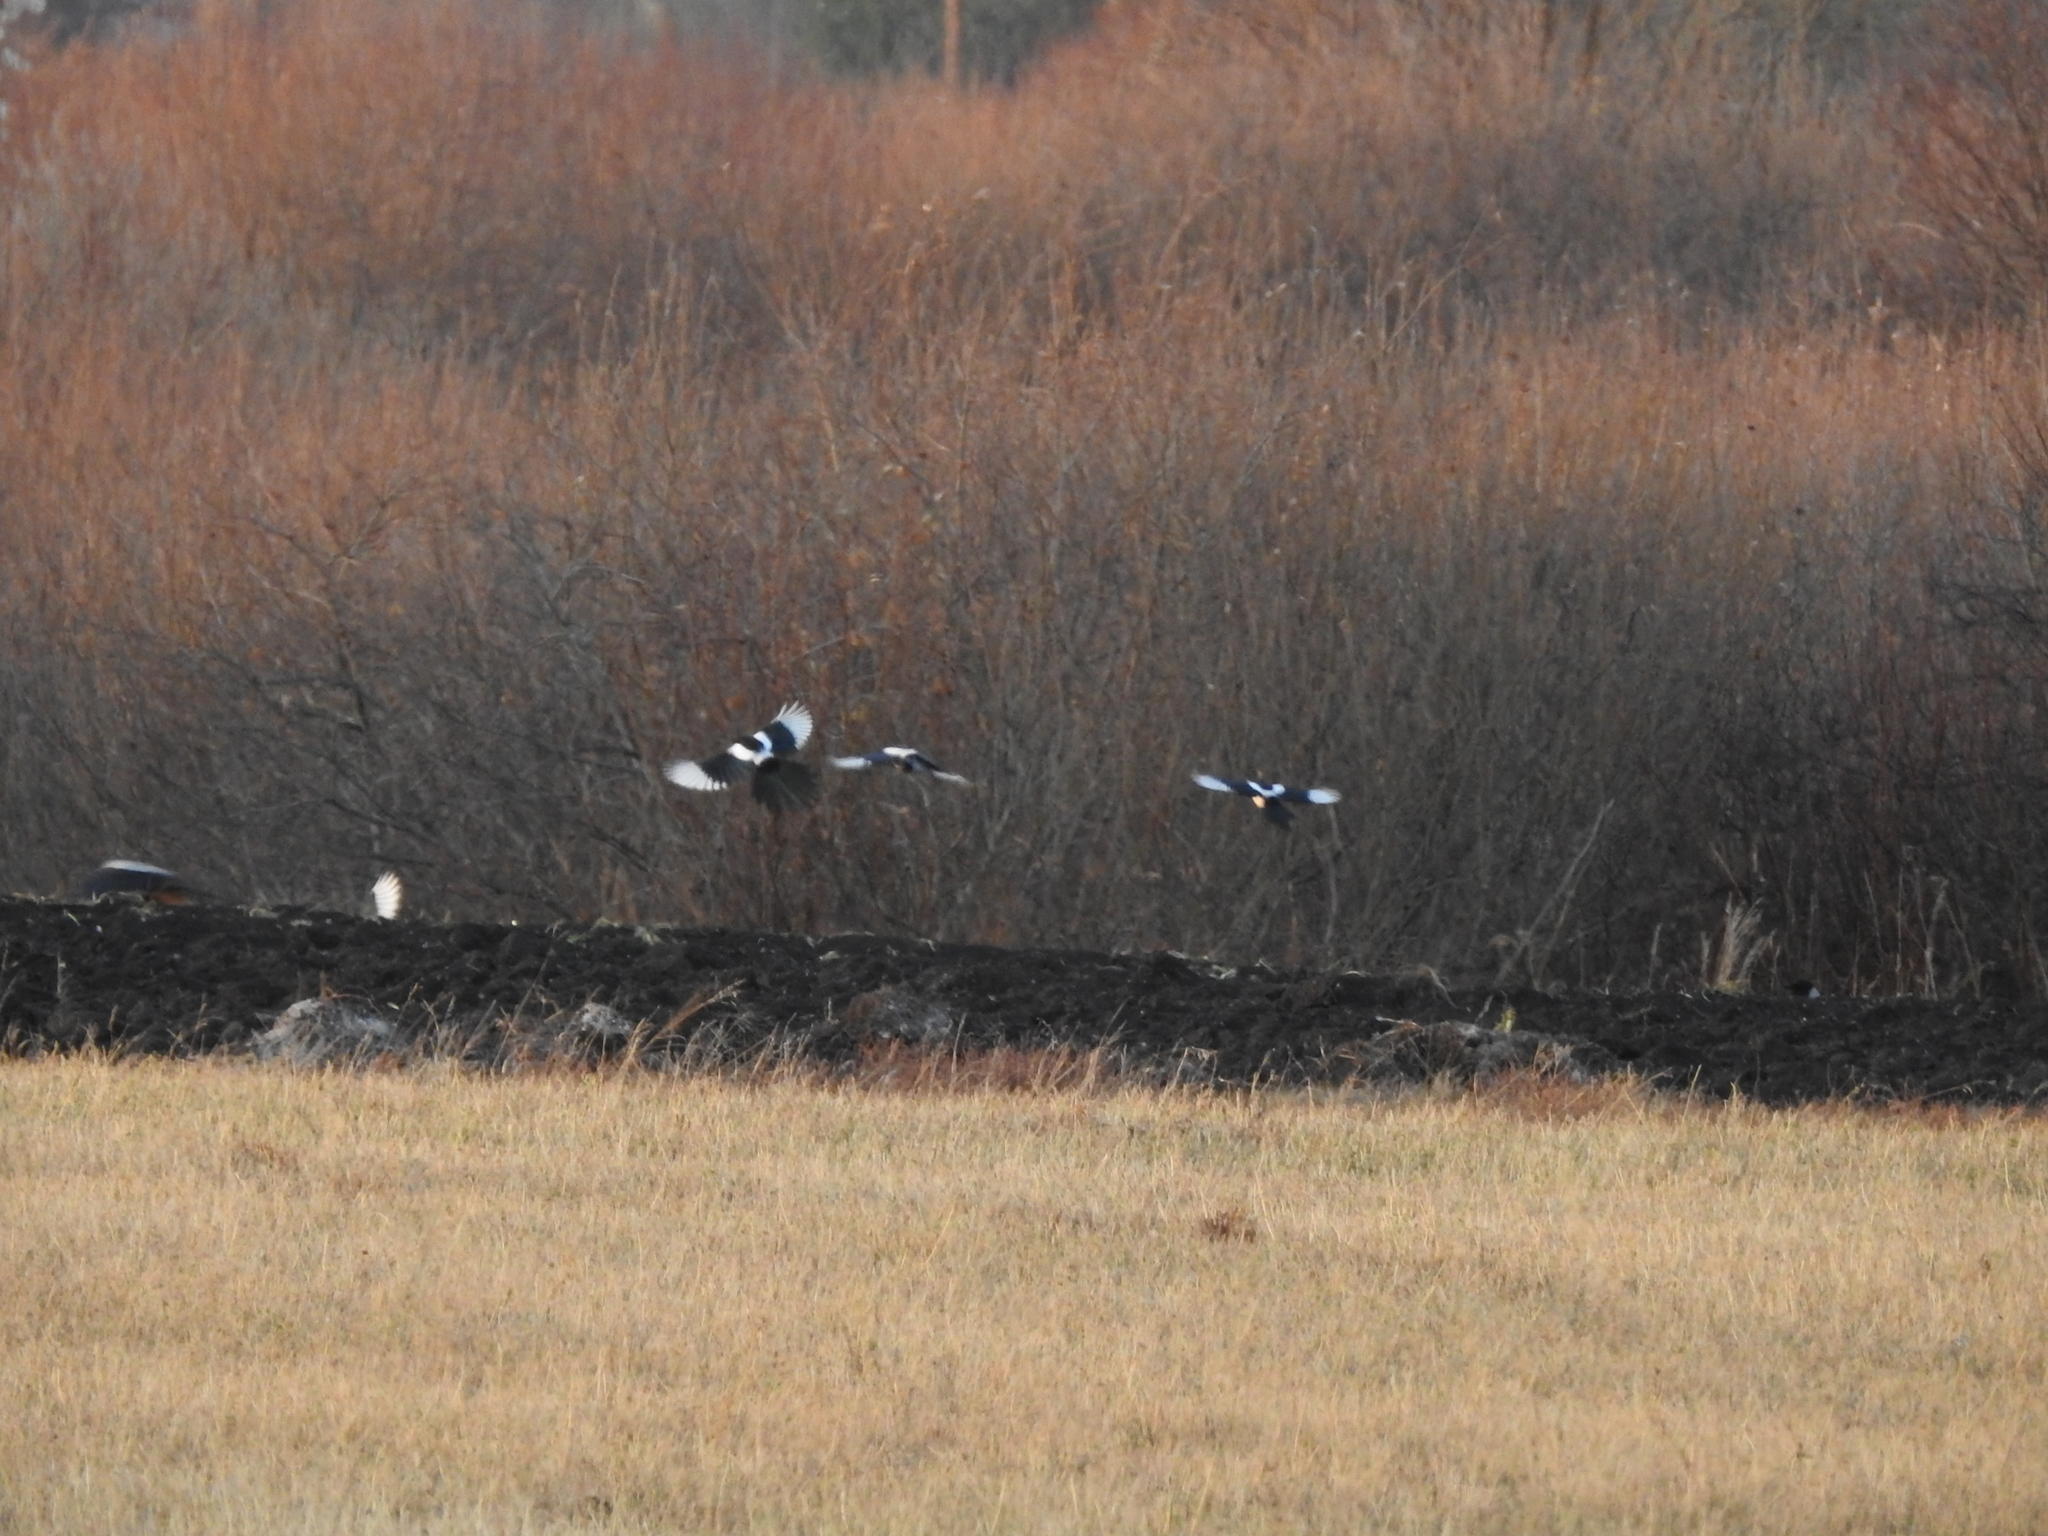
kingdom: Animalia
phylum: Chordata
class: Aves
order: Passeriformes
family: Corvidae
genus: Pica
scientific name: Pica pica
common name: Eurasian magpie
